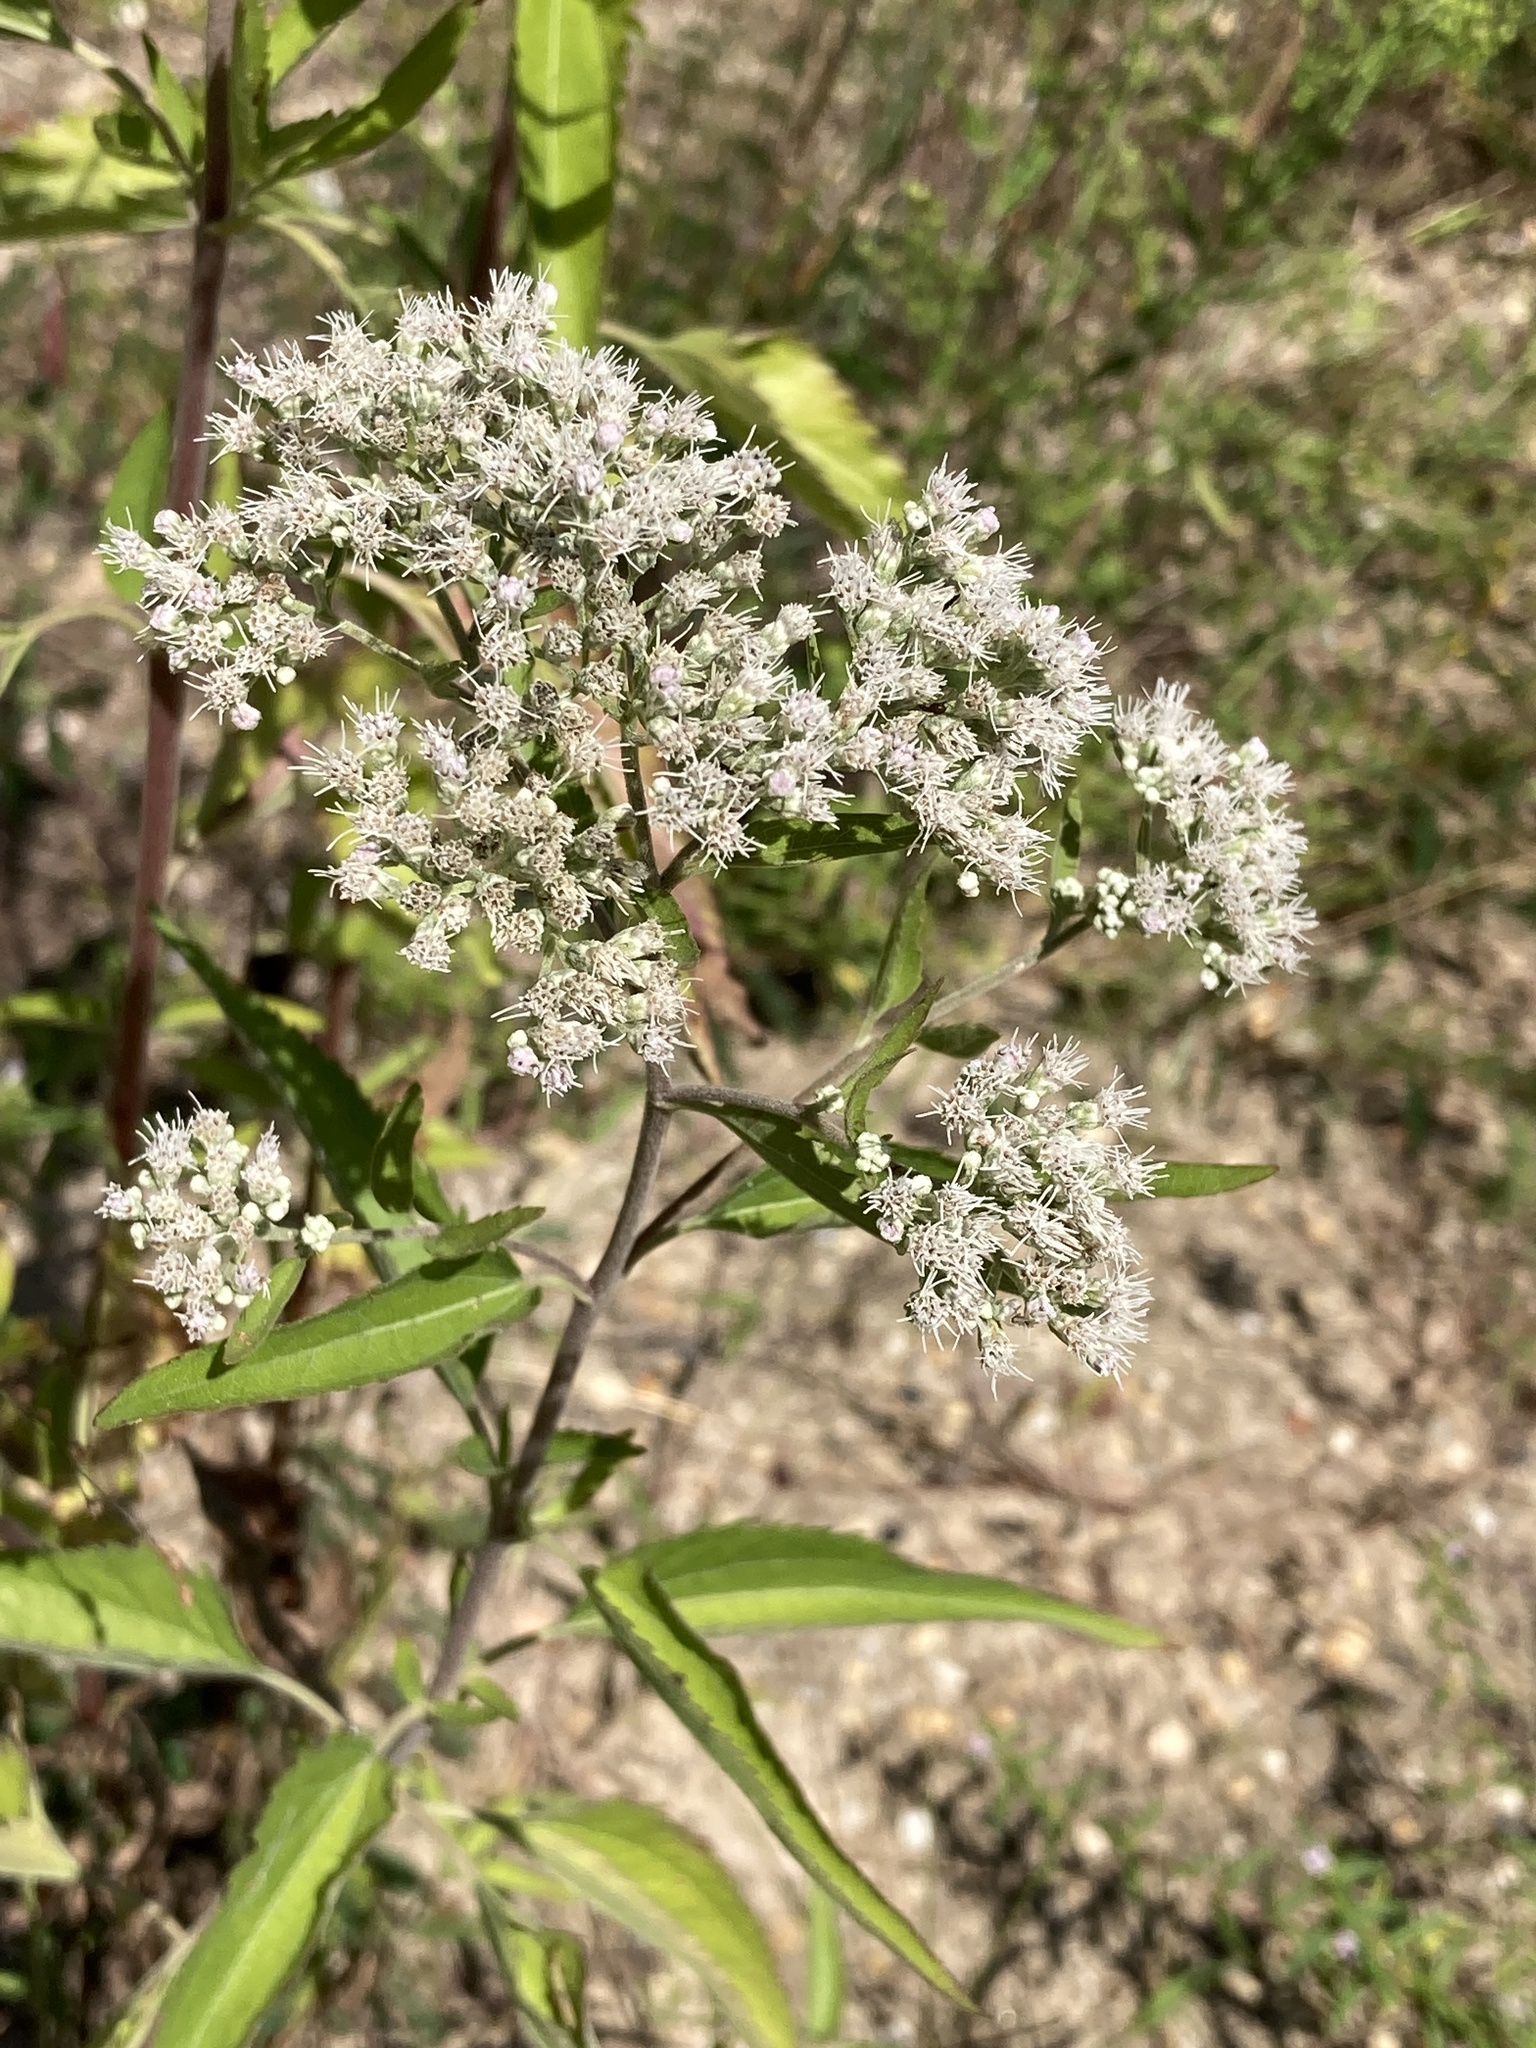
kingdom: Plantae
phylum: Tracheophyta
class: Magnoliopsida
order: Asterales
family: Asteraceae
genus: Eupatorium
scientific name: Eupatorium serotinum
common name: Late boneset
